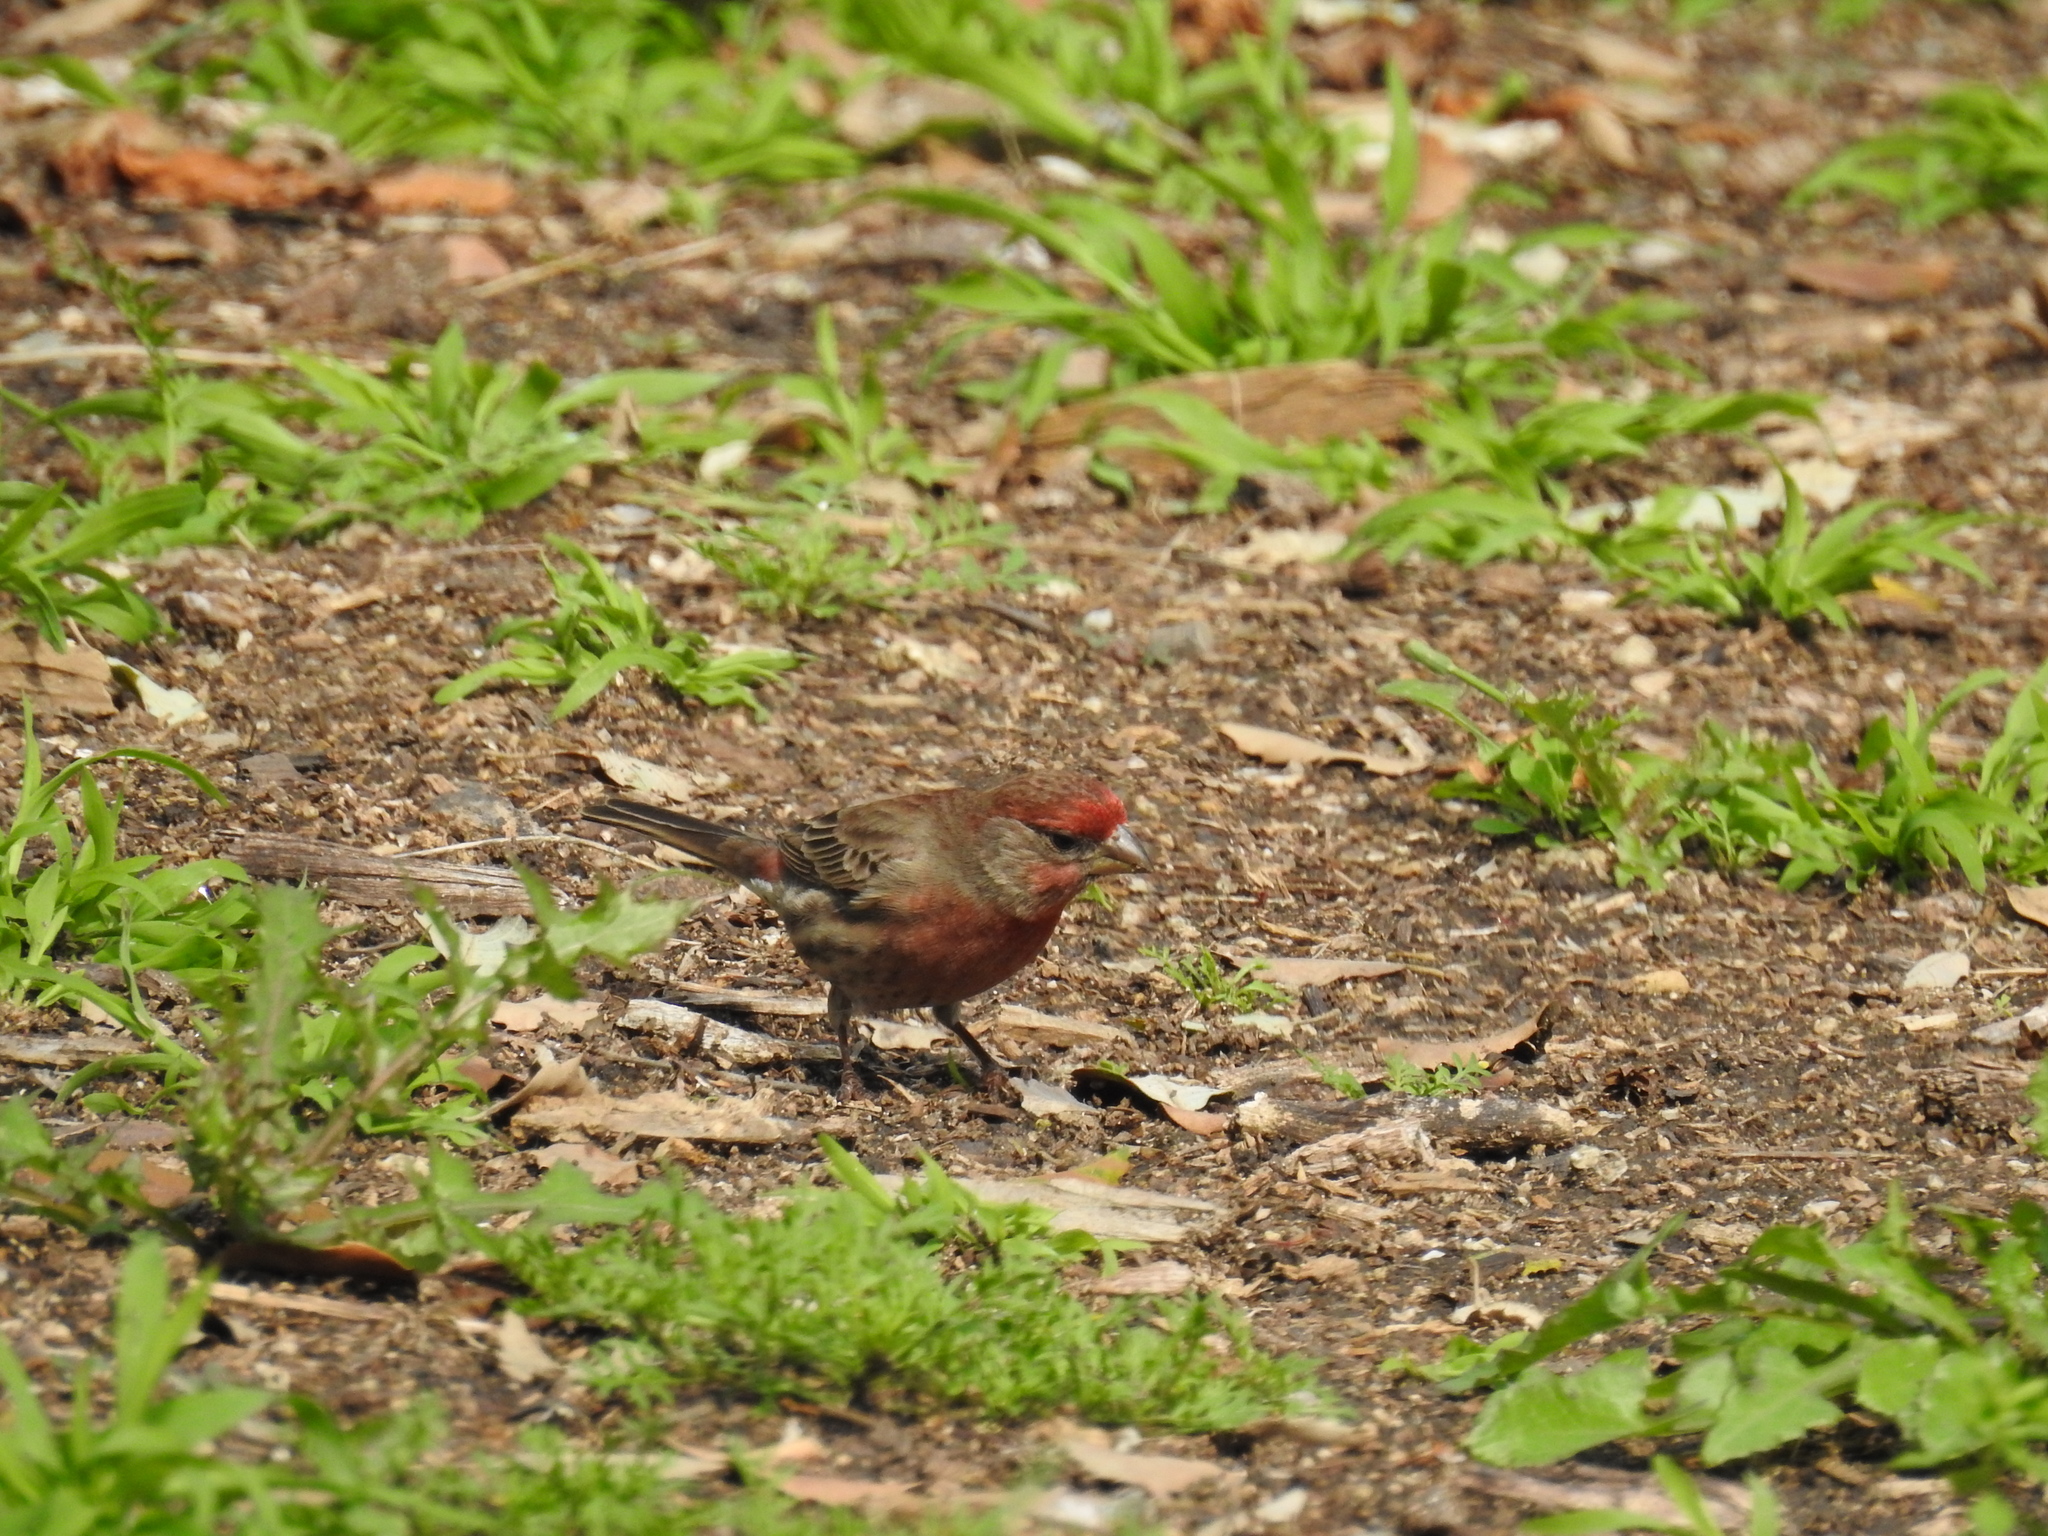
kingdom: Animalia
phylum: Chordata
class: Aves
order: Passeriformes
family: Fringillidae
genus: Haemorhous
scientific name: Haemorhous mexicanus
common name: House finch
